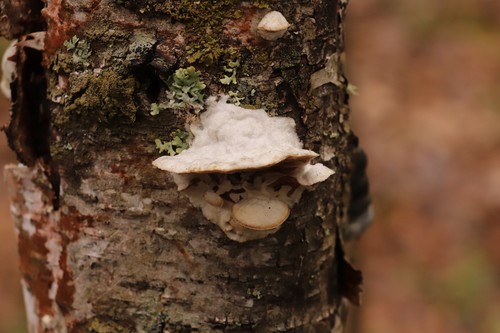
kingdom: Fungi
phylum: Basidiomycota
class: Agaricomycetes
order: Polyporales
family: Irpicaceae
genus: Vitreoporus
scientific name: Vitreoporus dichrous
